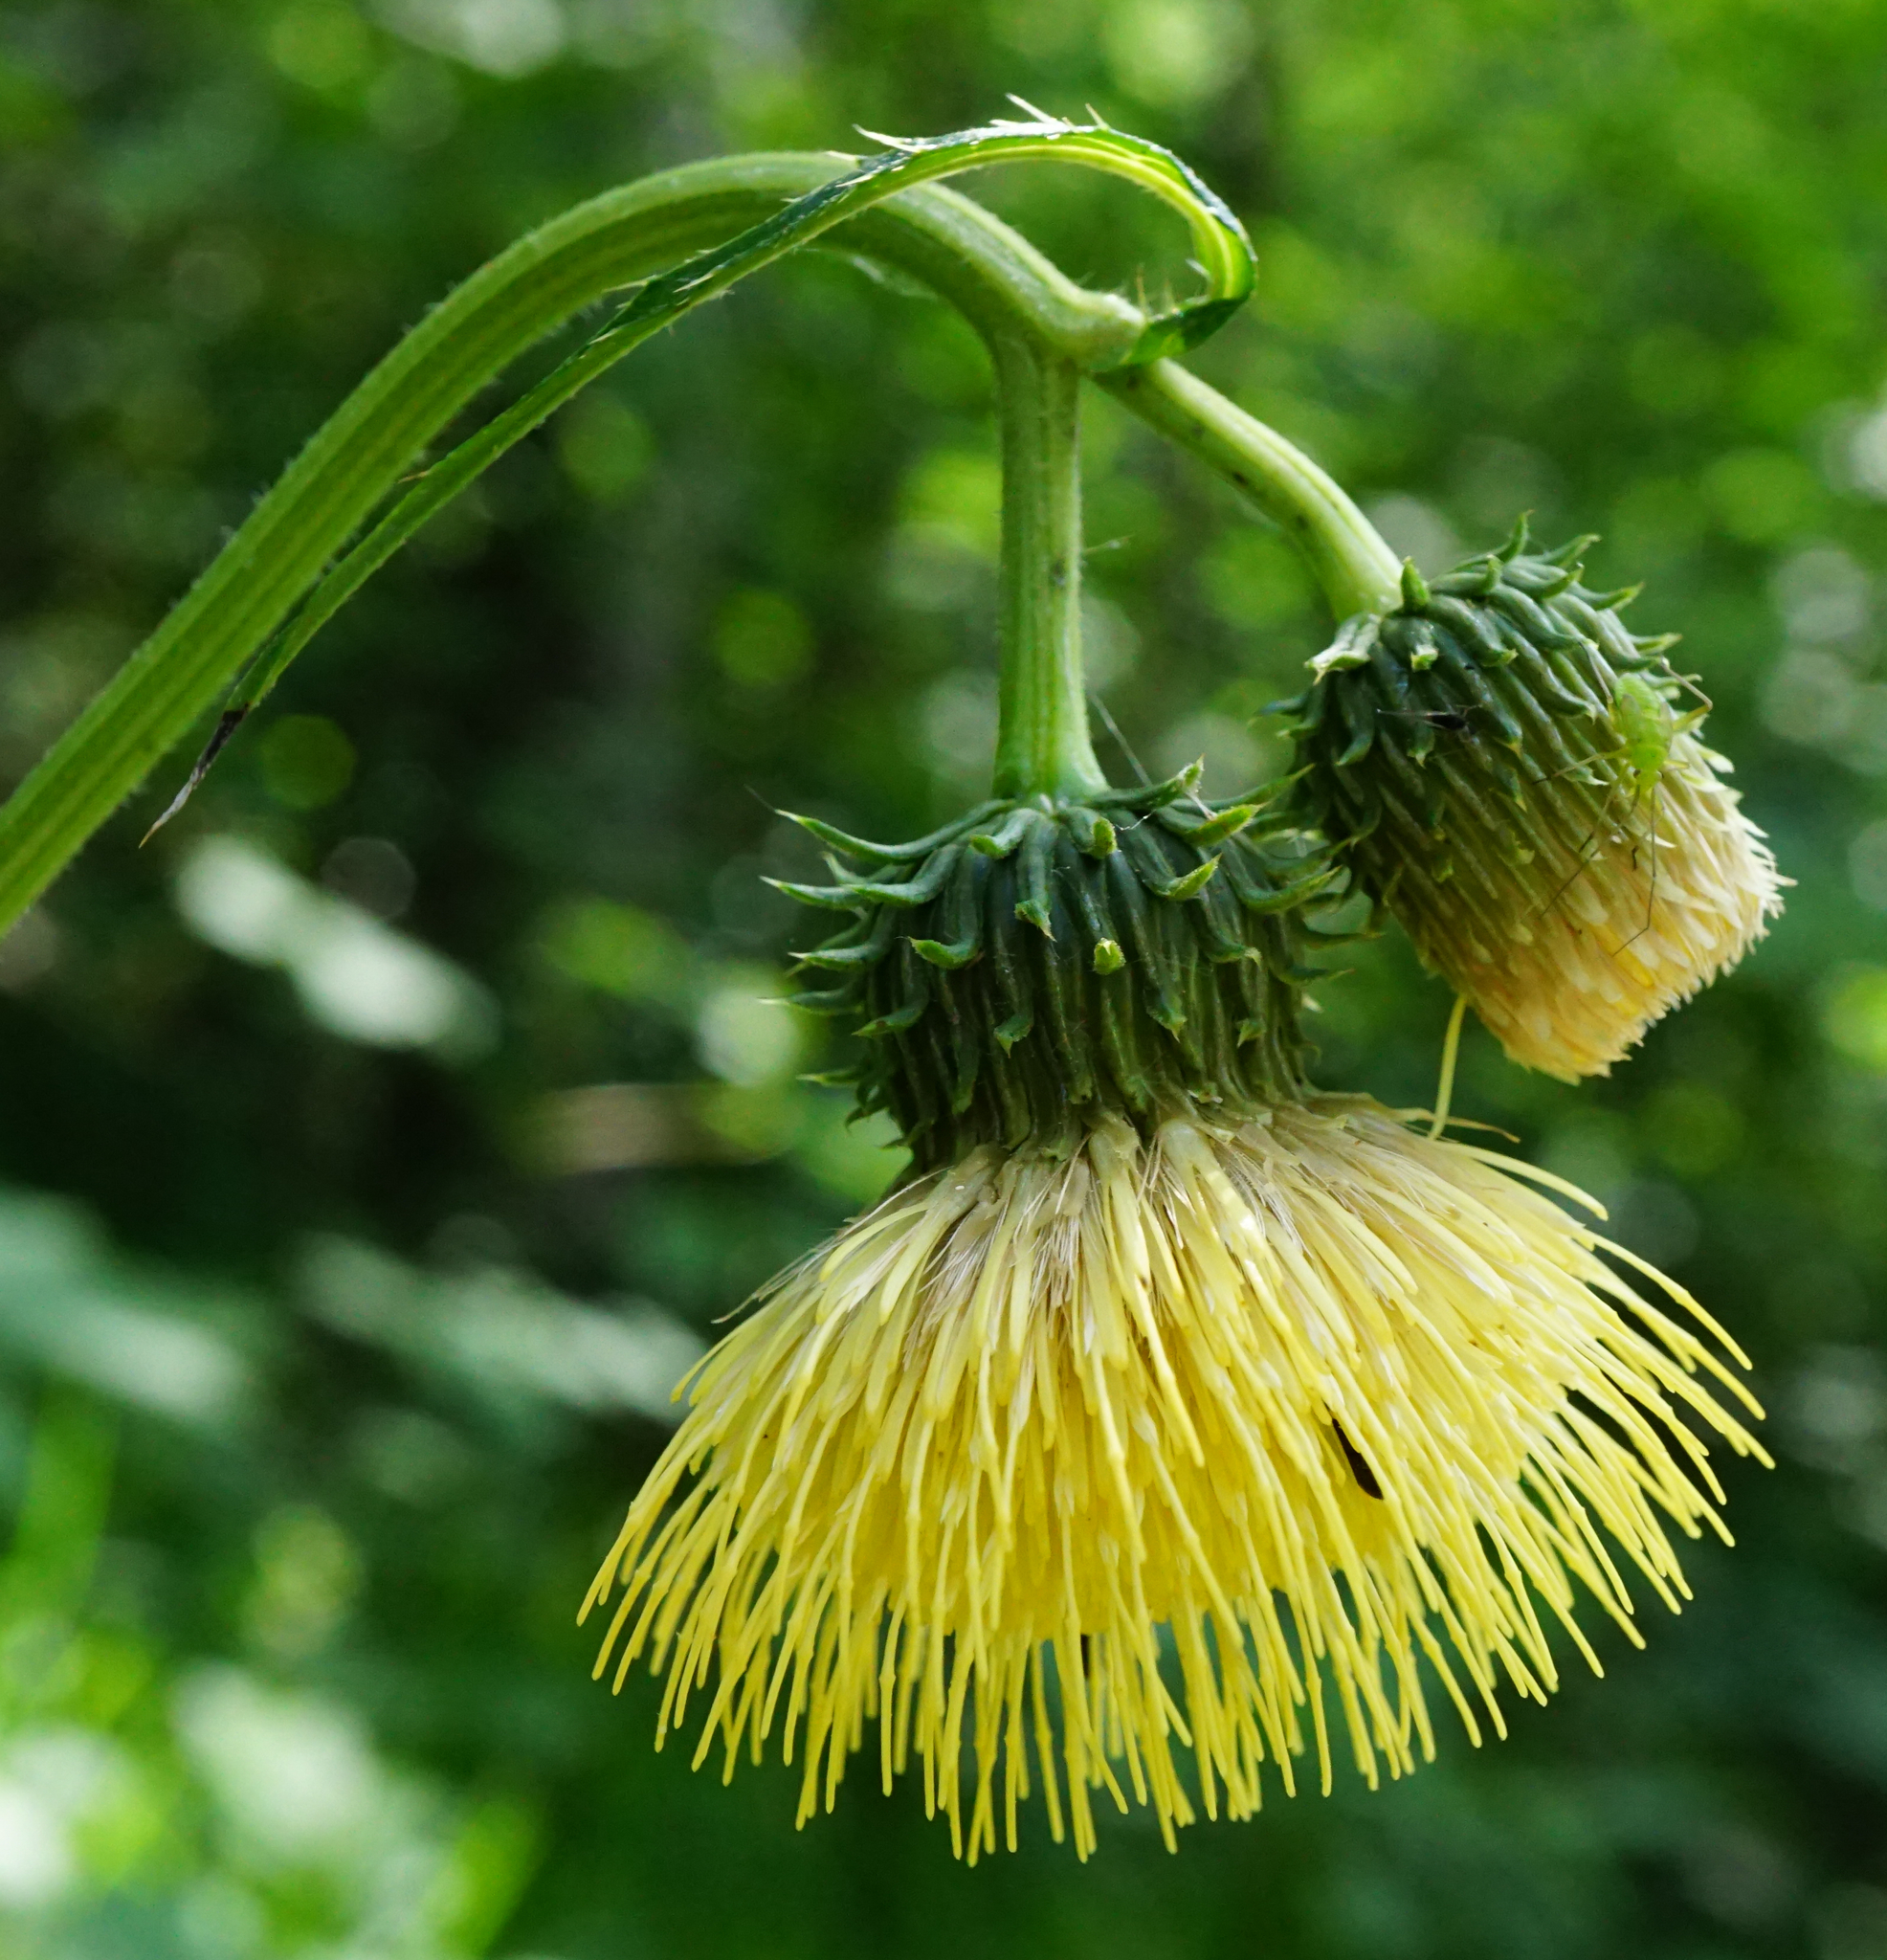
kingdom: Plantae
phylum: Tracheophyta
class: Magnoliopsida
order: Asterales
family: Asteraceae
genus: Cirsium
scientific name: Cirsium erisithales
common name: Yellow thistle
